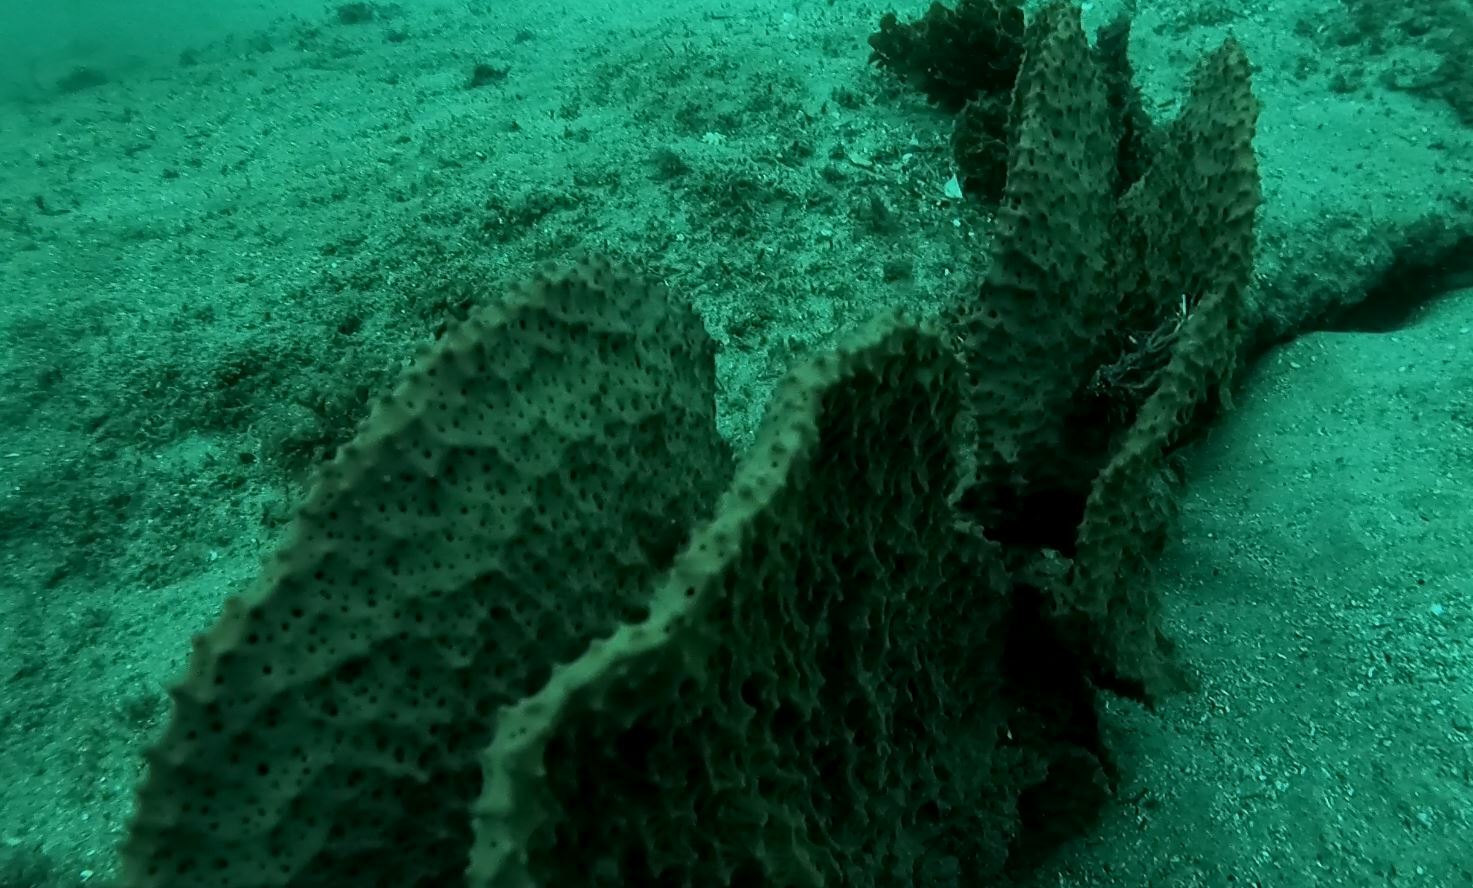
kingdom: Animalia
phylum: Porifera
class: Demospongiae
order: Verongiida
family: Ianthellidae
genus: Ianthella
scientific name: Ianthella quadrangulata
